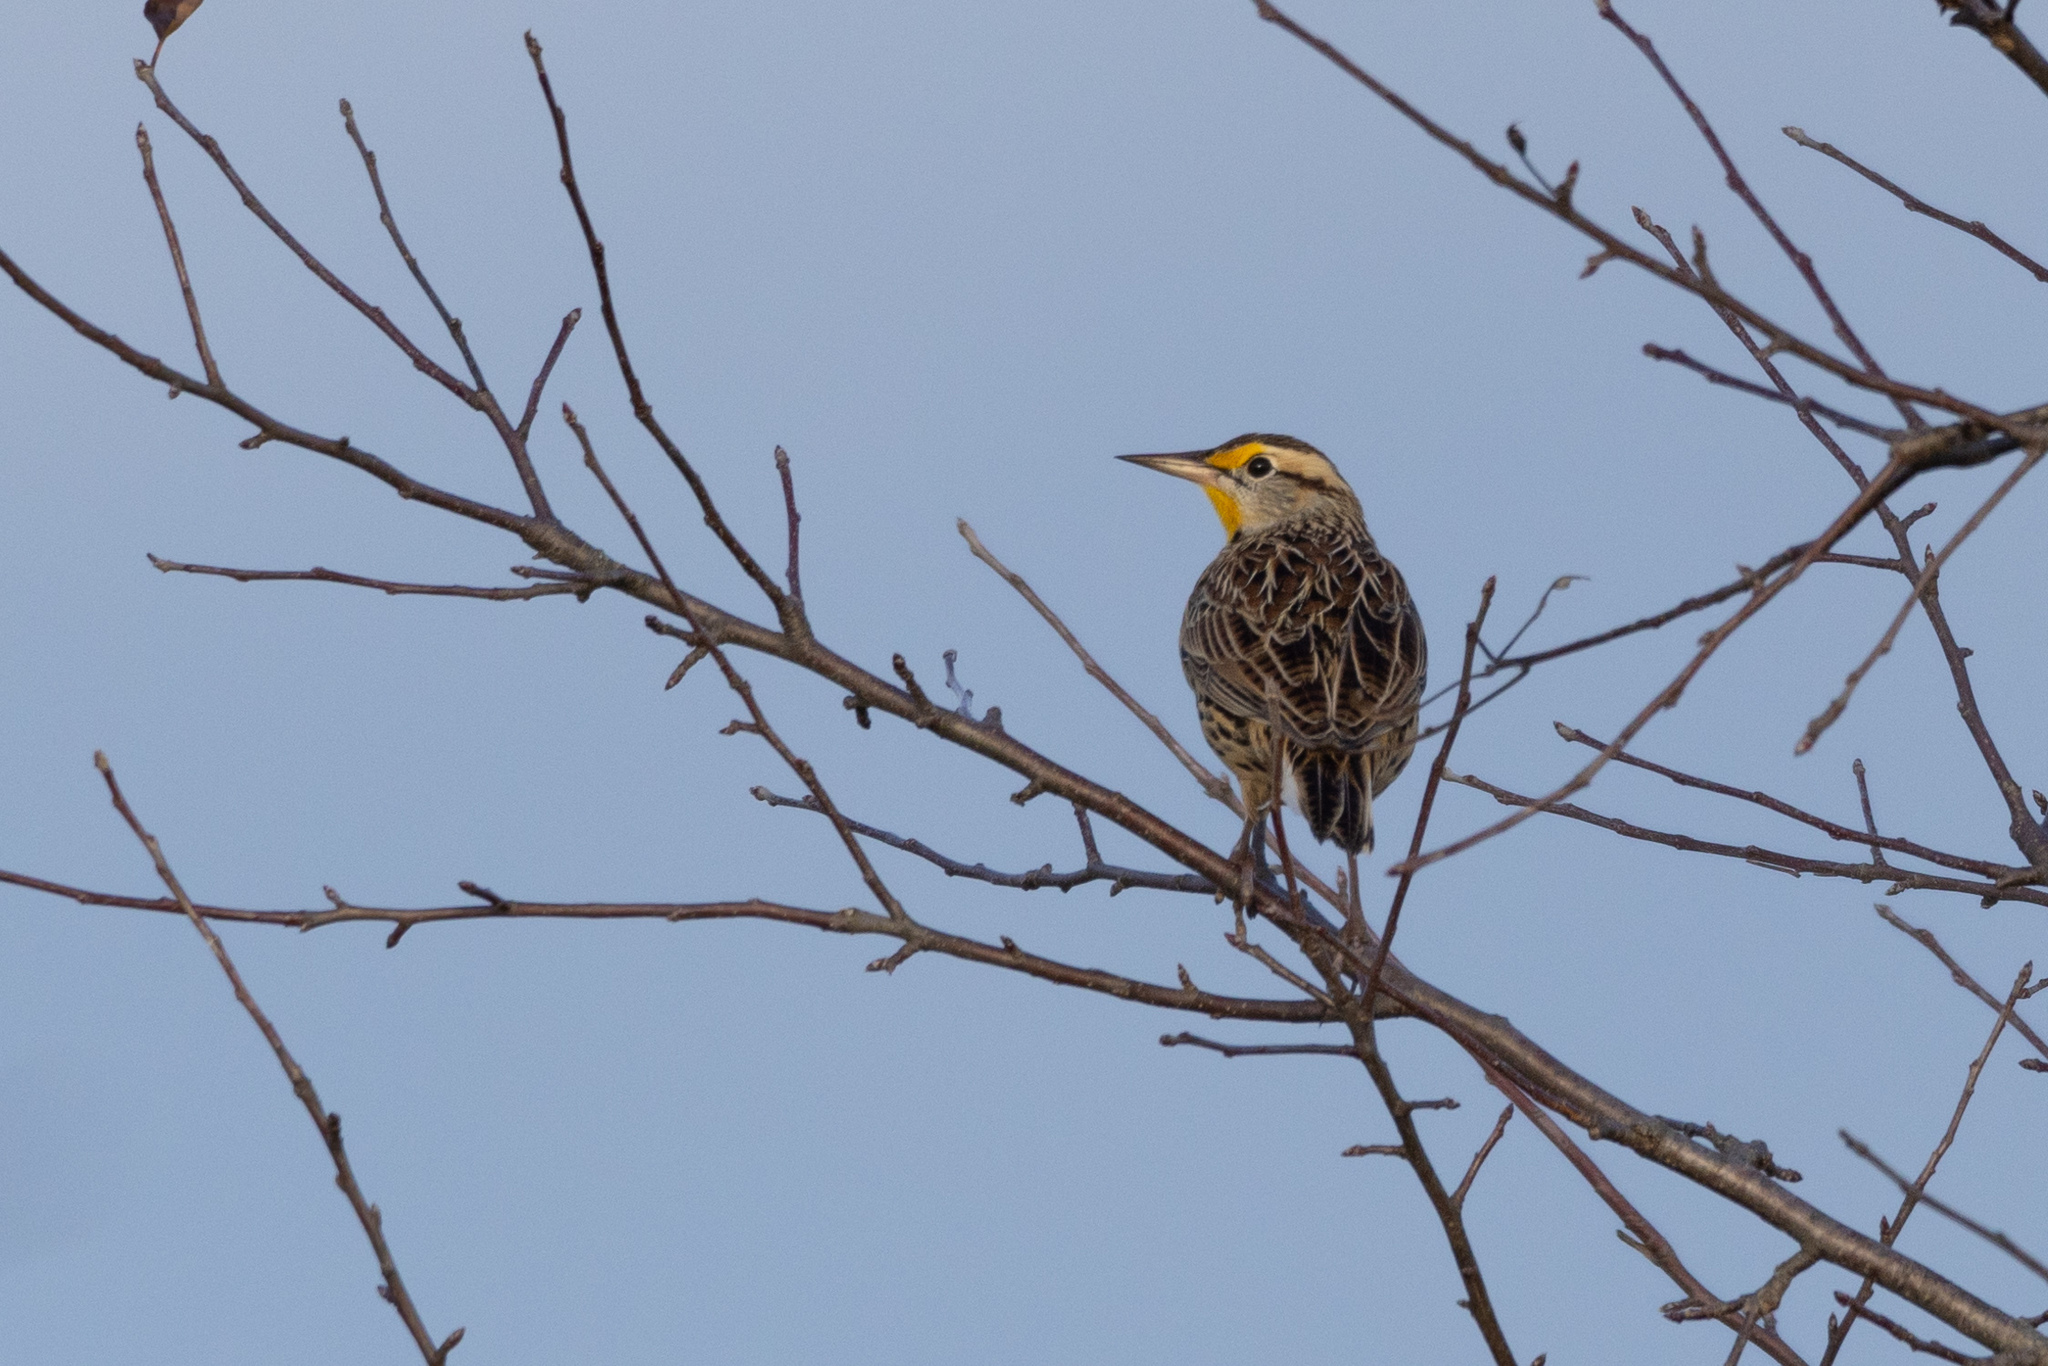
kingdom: Animalia
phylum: Chordata
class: Aves
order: Passeriformes
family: Icteridae
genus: Sturnella
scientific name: Sturnella magna
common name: Eastern meadowlark
